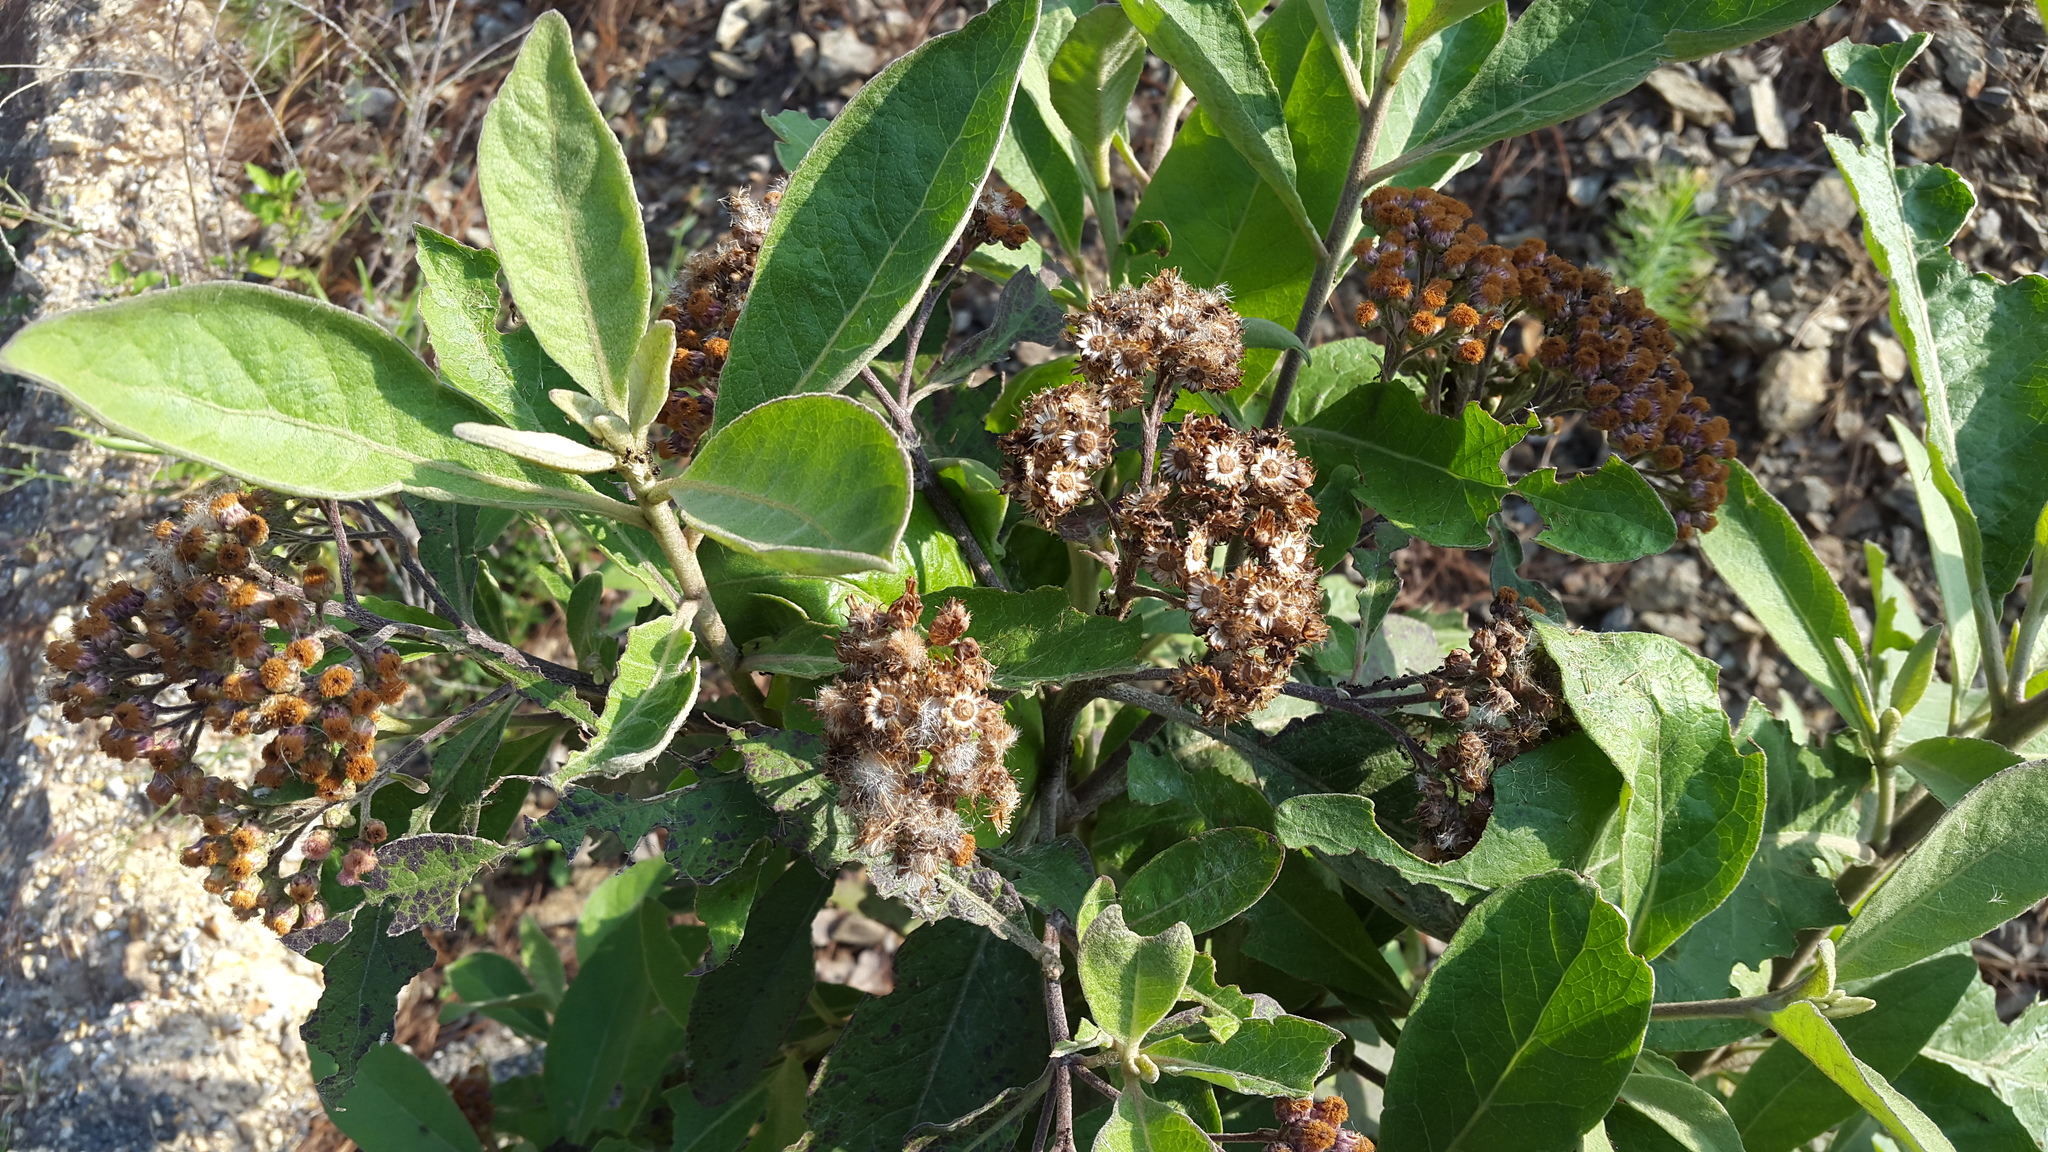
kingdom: Plantae
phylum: Tracheophyta
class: Magnoliopsida
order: Asterales
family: Asteraceae
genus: Pluchea
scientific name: Pluchea carolinensis
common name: Marsh fleabane
